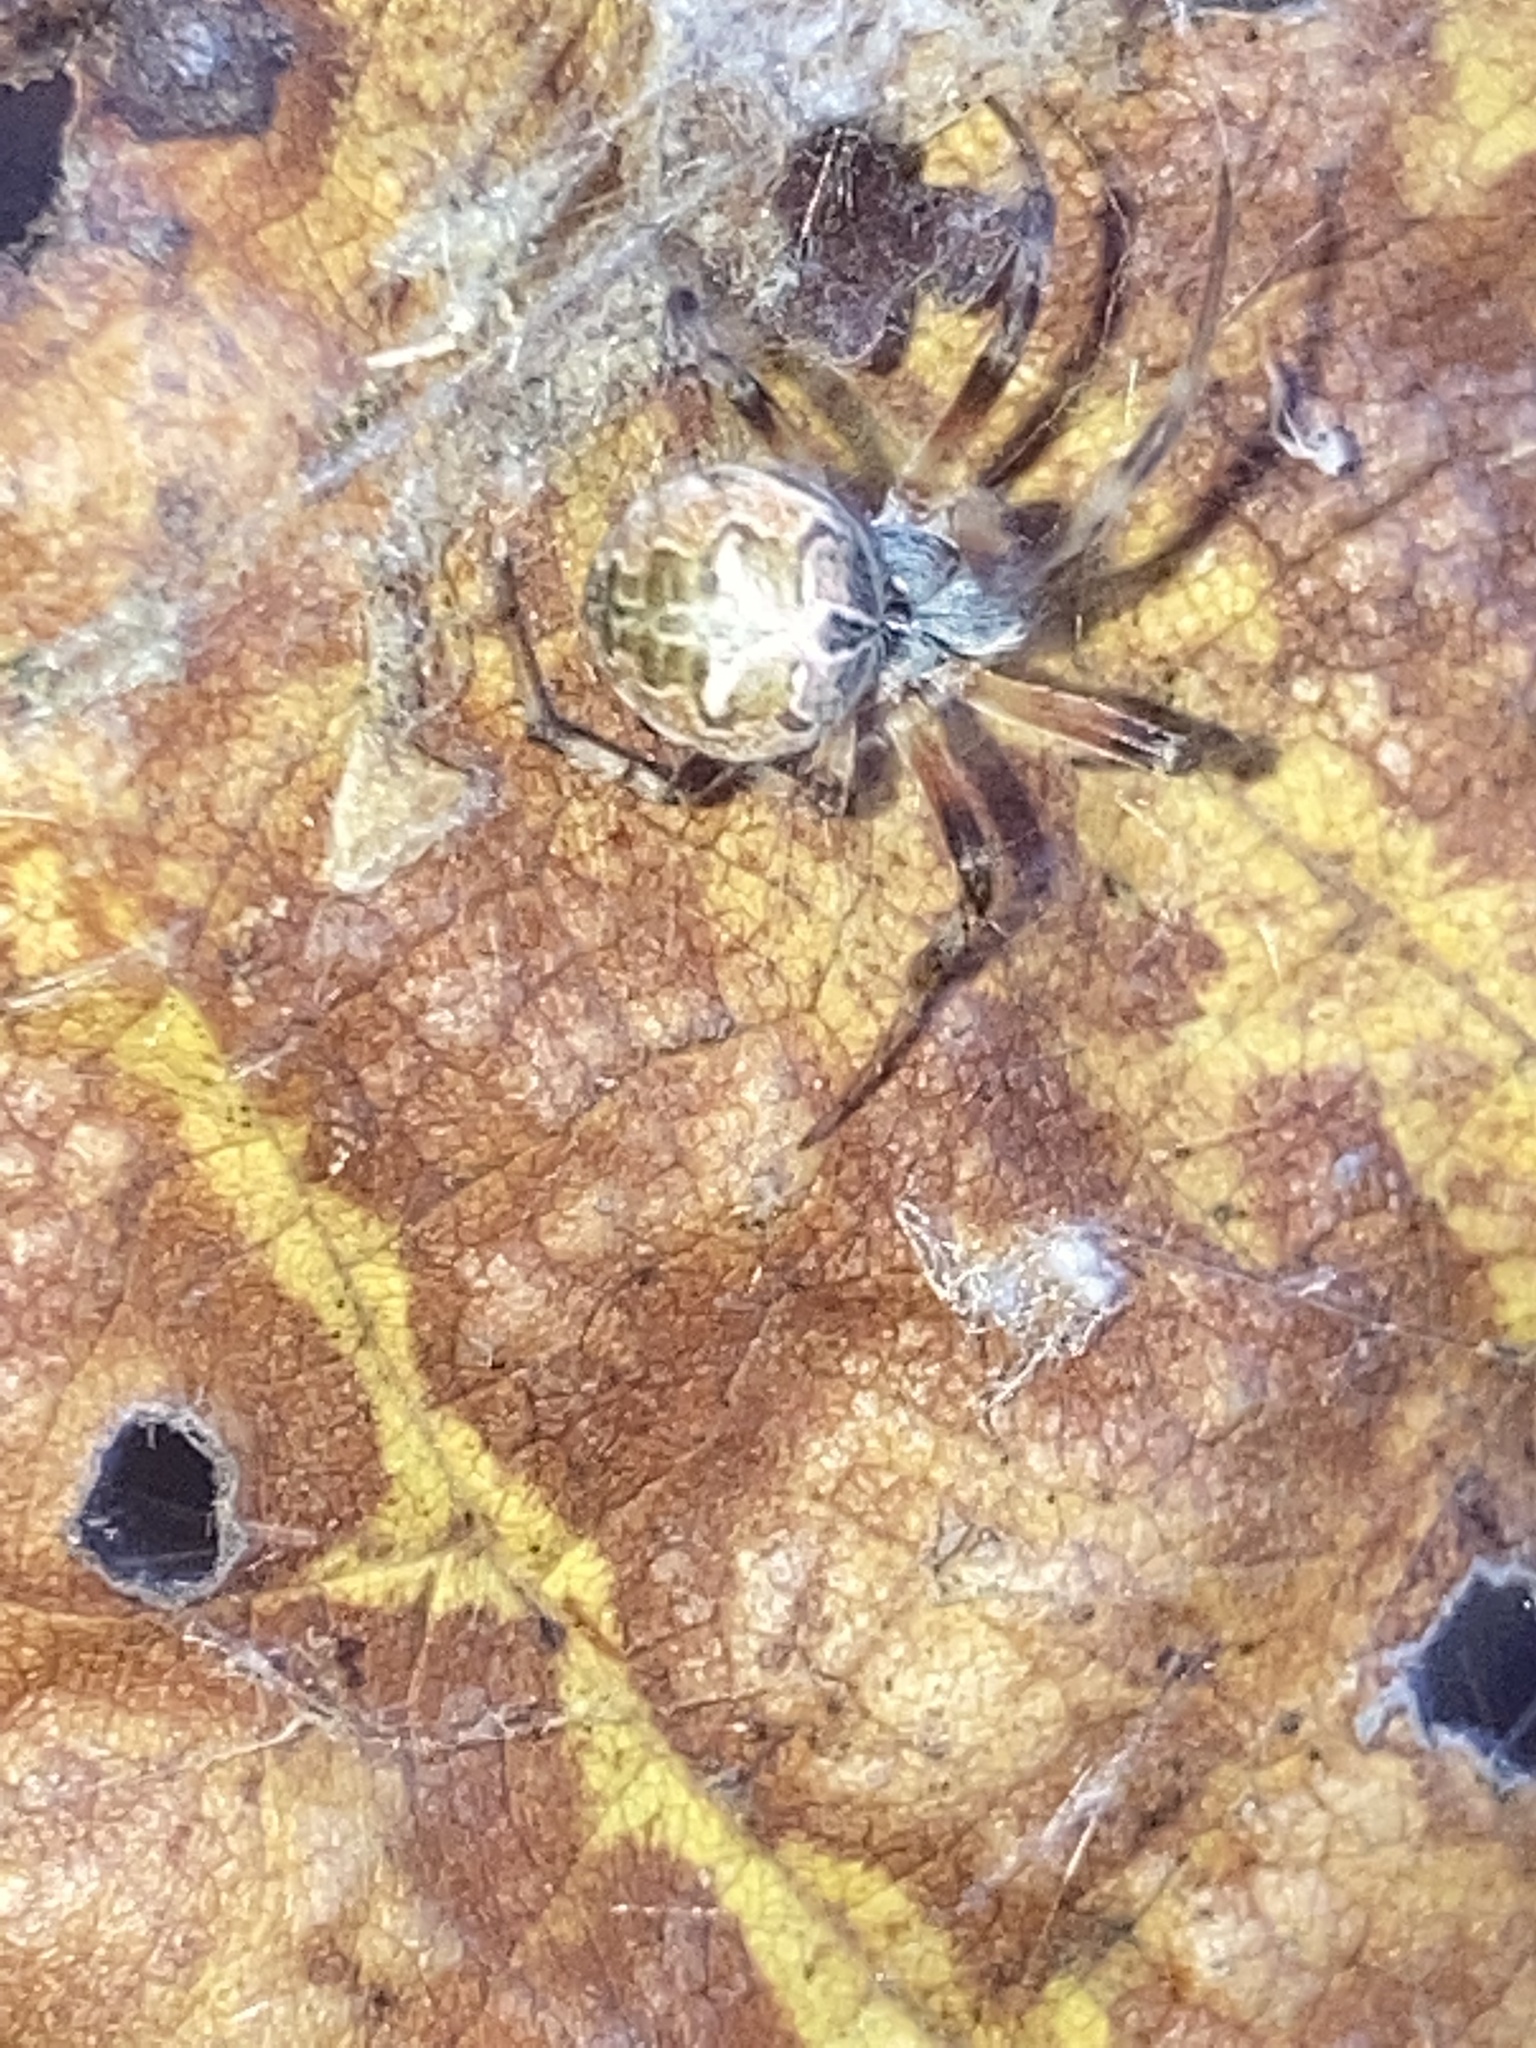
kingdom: Animalia
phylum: Arthropoda
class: Arachnida
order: Araneae
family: Araneidae
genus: Metepeira
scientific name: Metepeira labyrinthea
